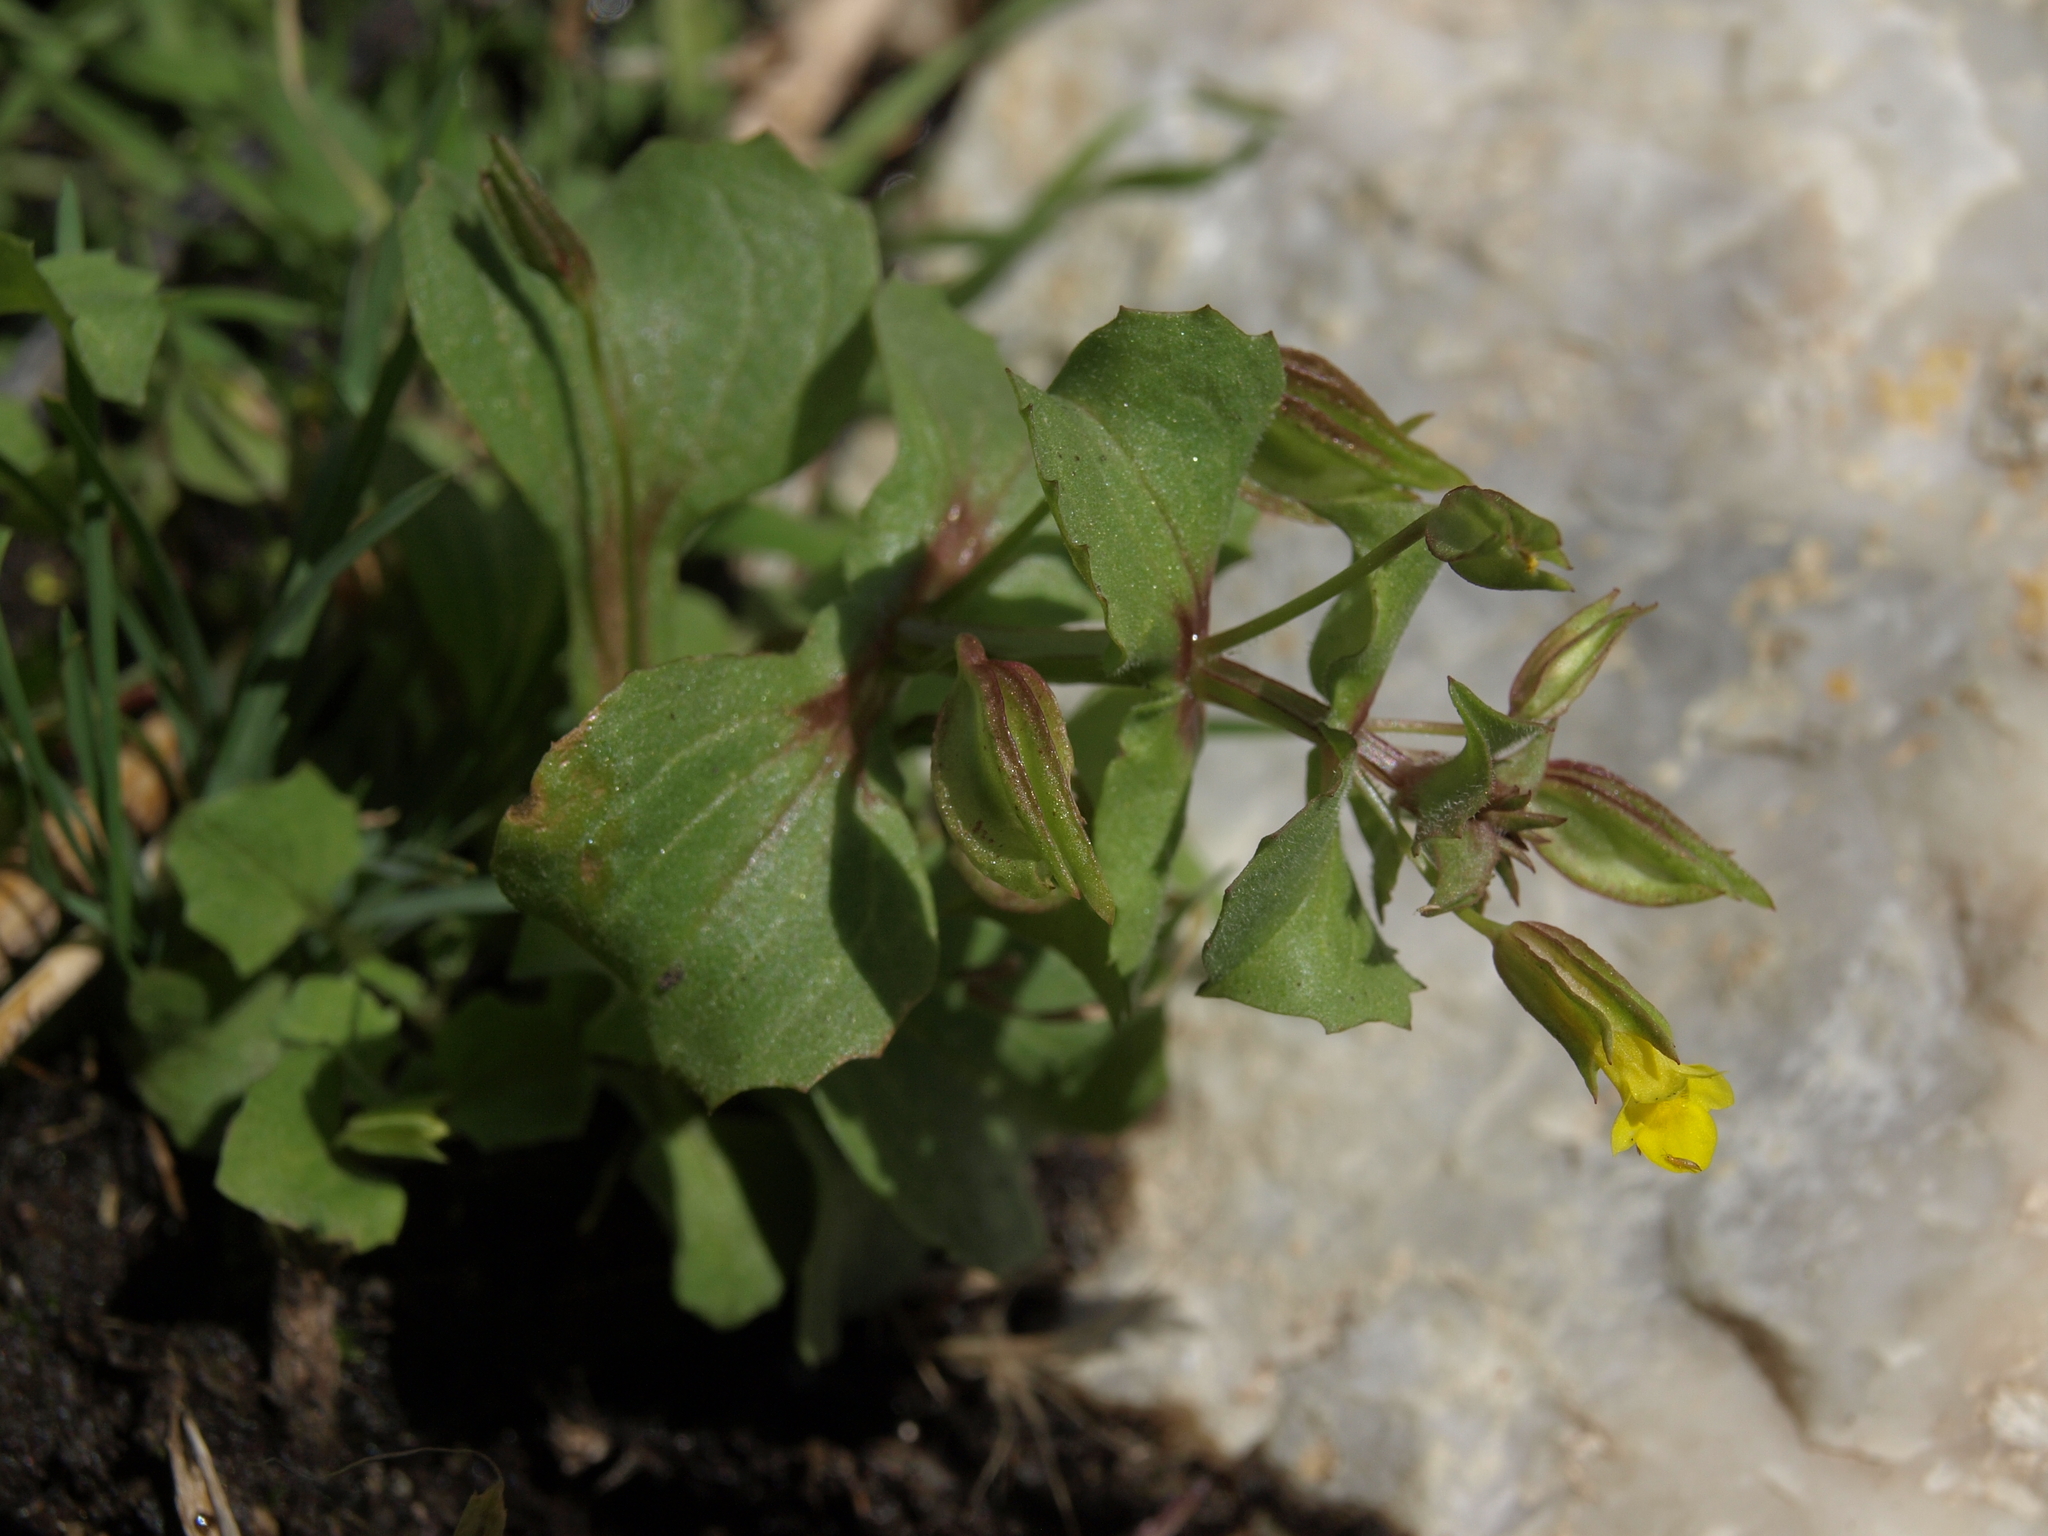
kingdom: Plantae
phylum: Tracheophyta
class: Magnoliopsida
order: Lamiales
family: Phrymaceae
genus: Erythranthe
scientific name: Erythranthe nasuta
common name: Sooke monkeyflower
